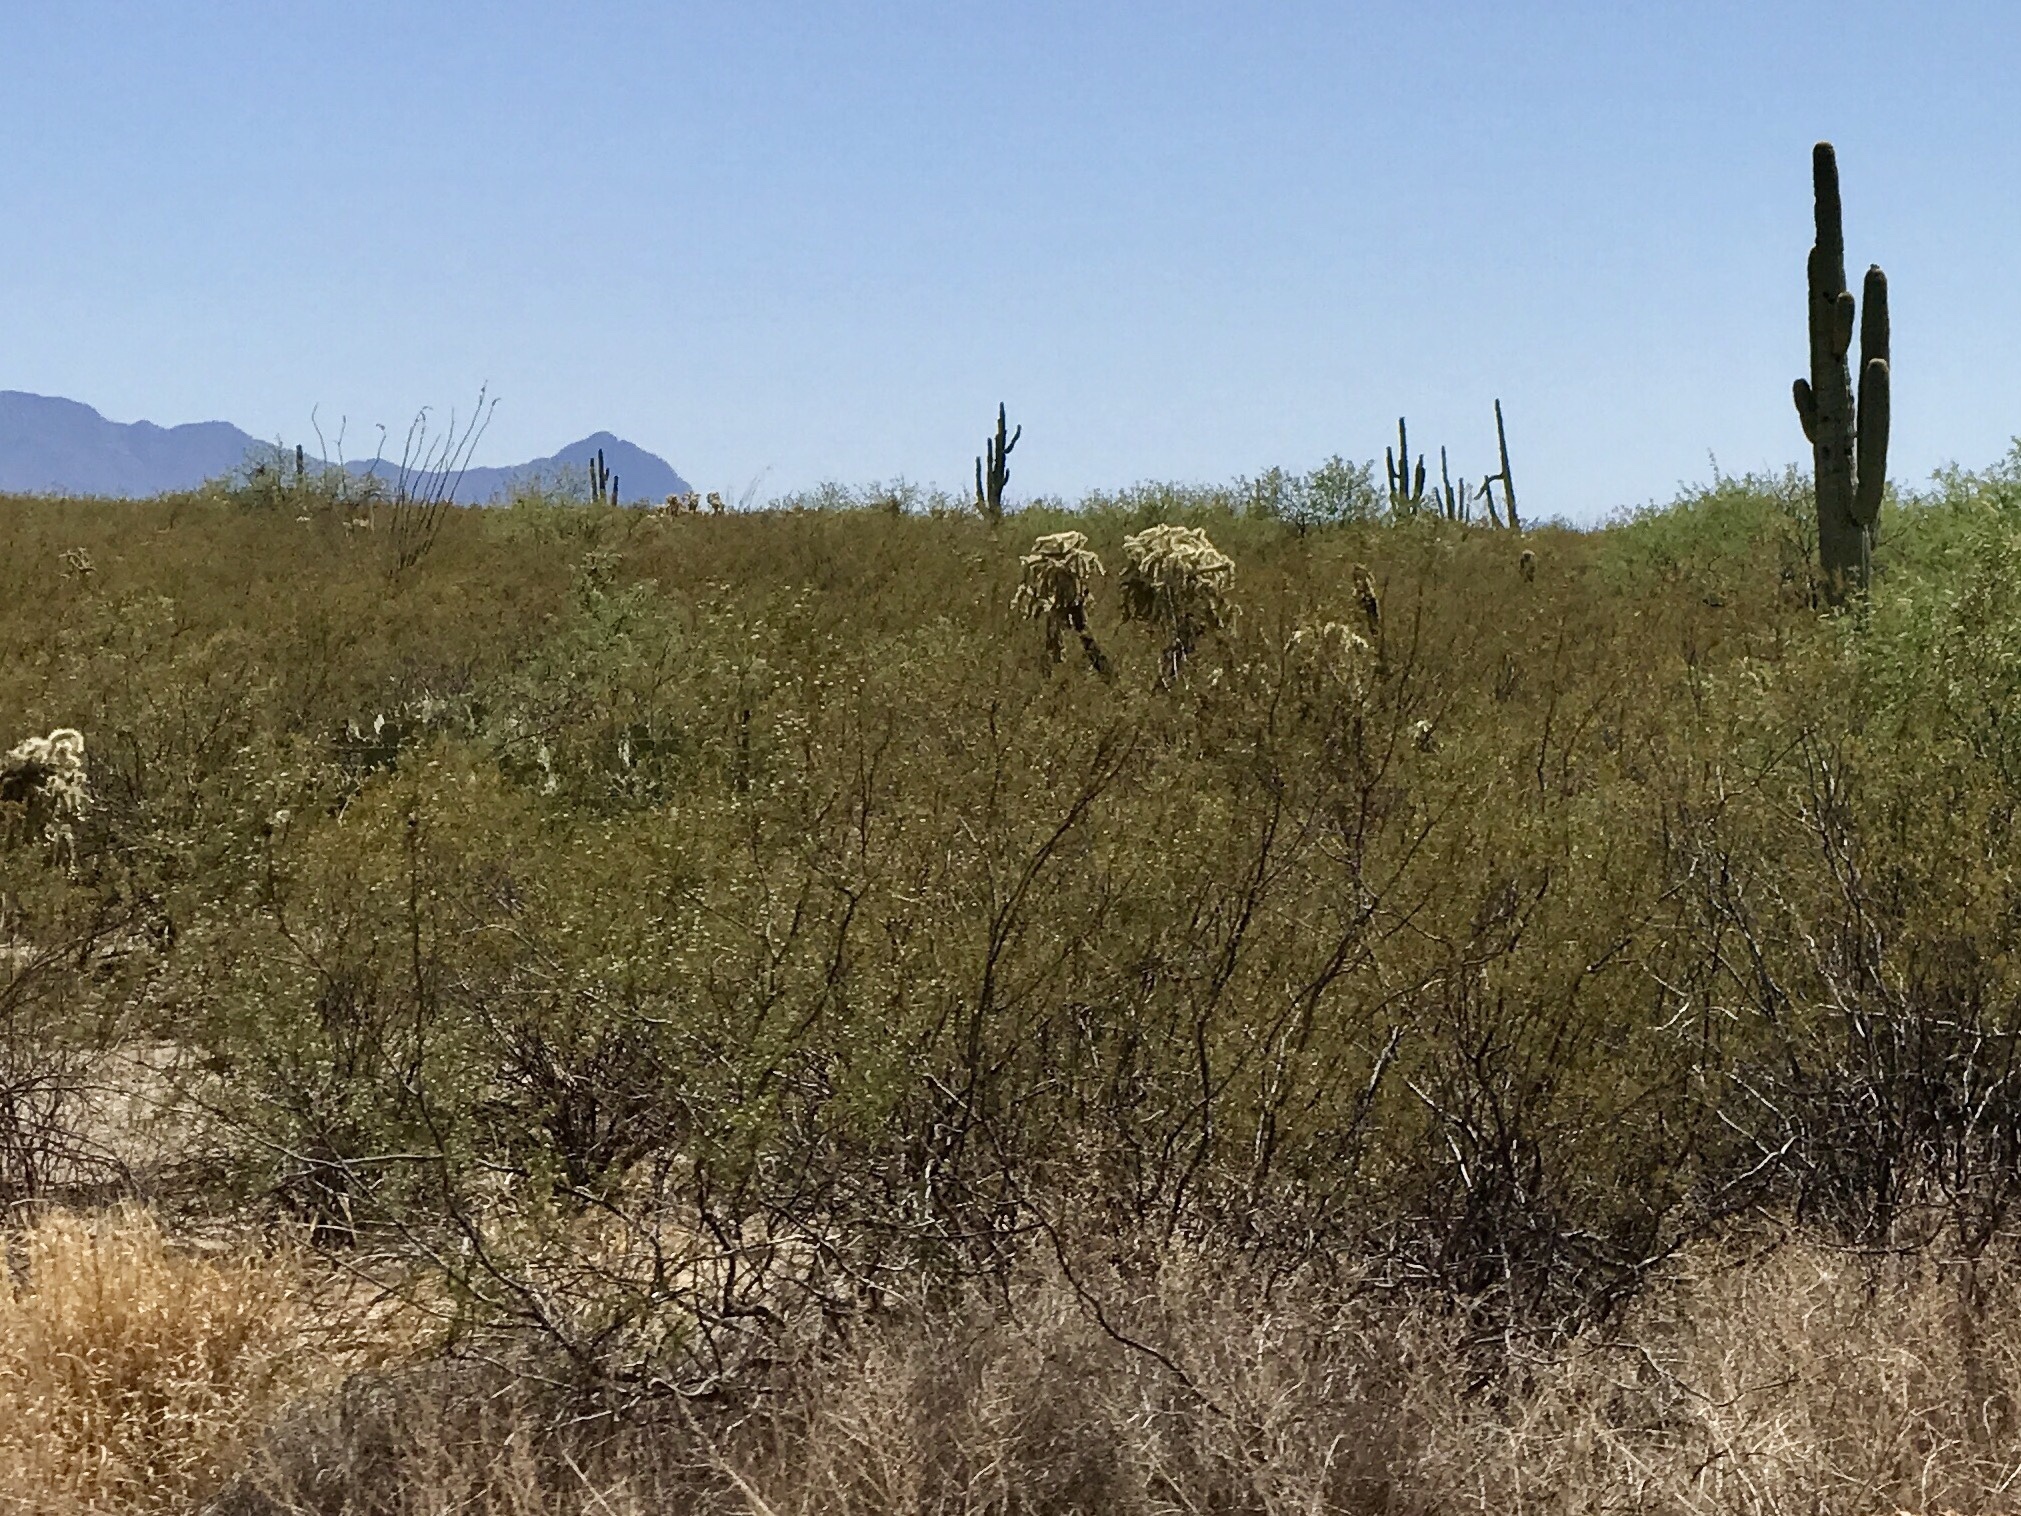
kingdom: Plantae
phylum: Tracheophyta
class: Magnoliopsida
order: Zygophyllales
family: Zygophyllaceae
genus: Larrea
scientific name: Larrea tridentata
